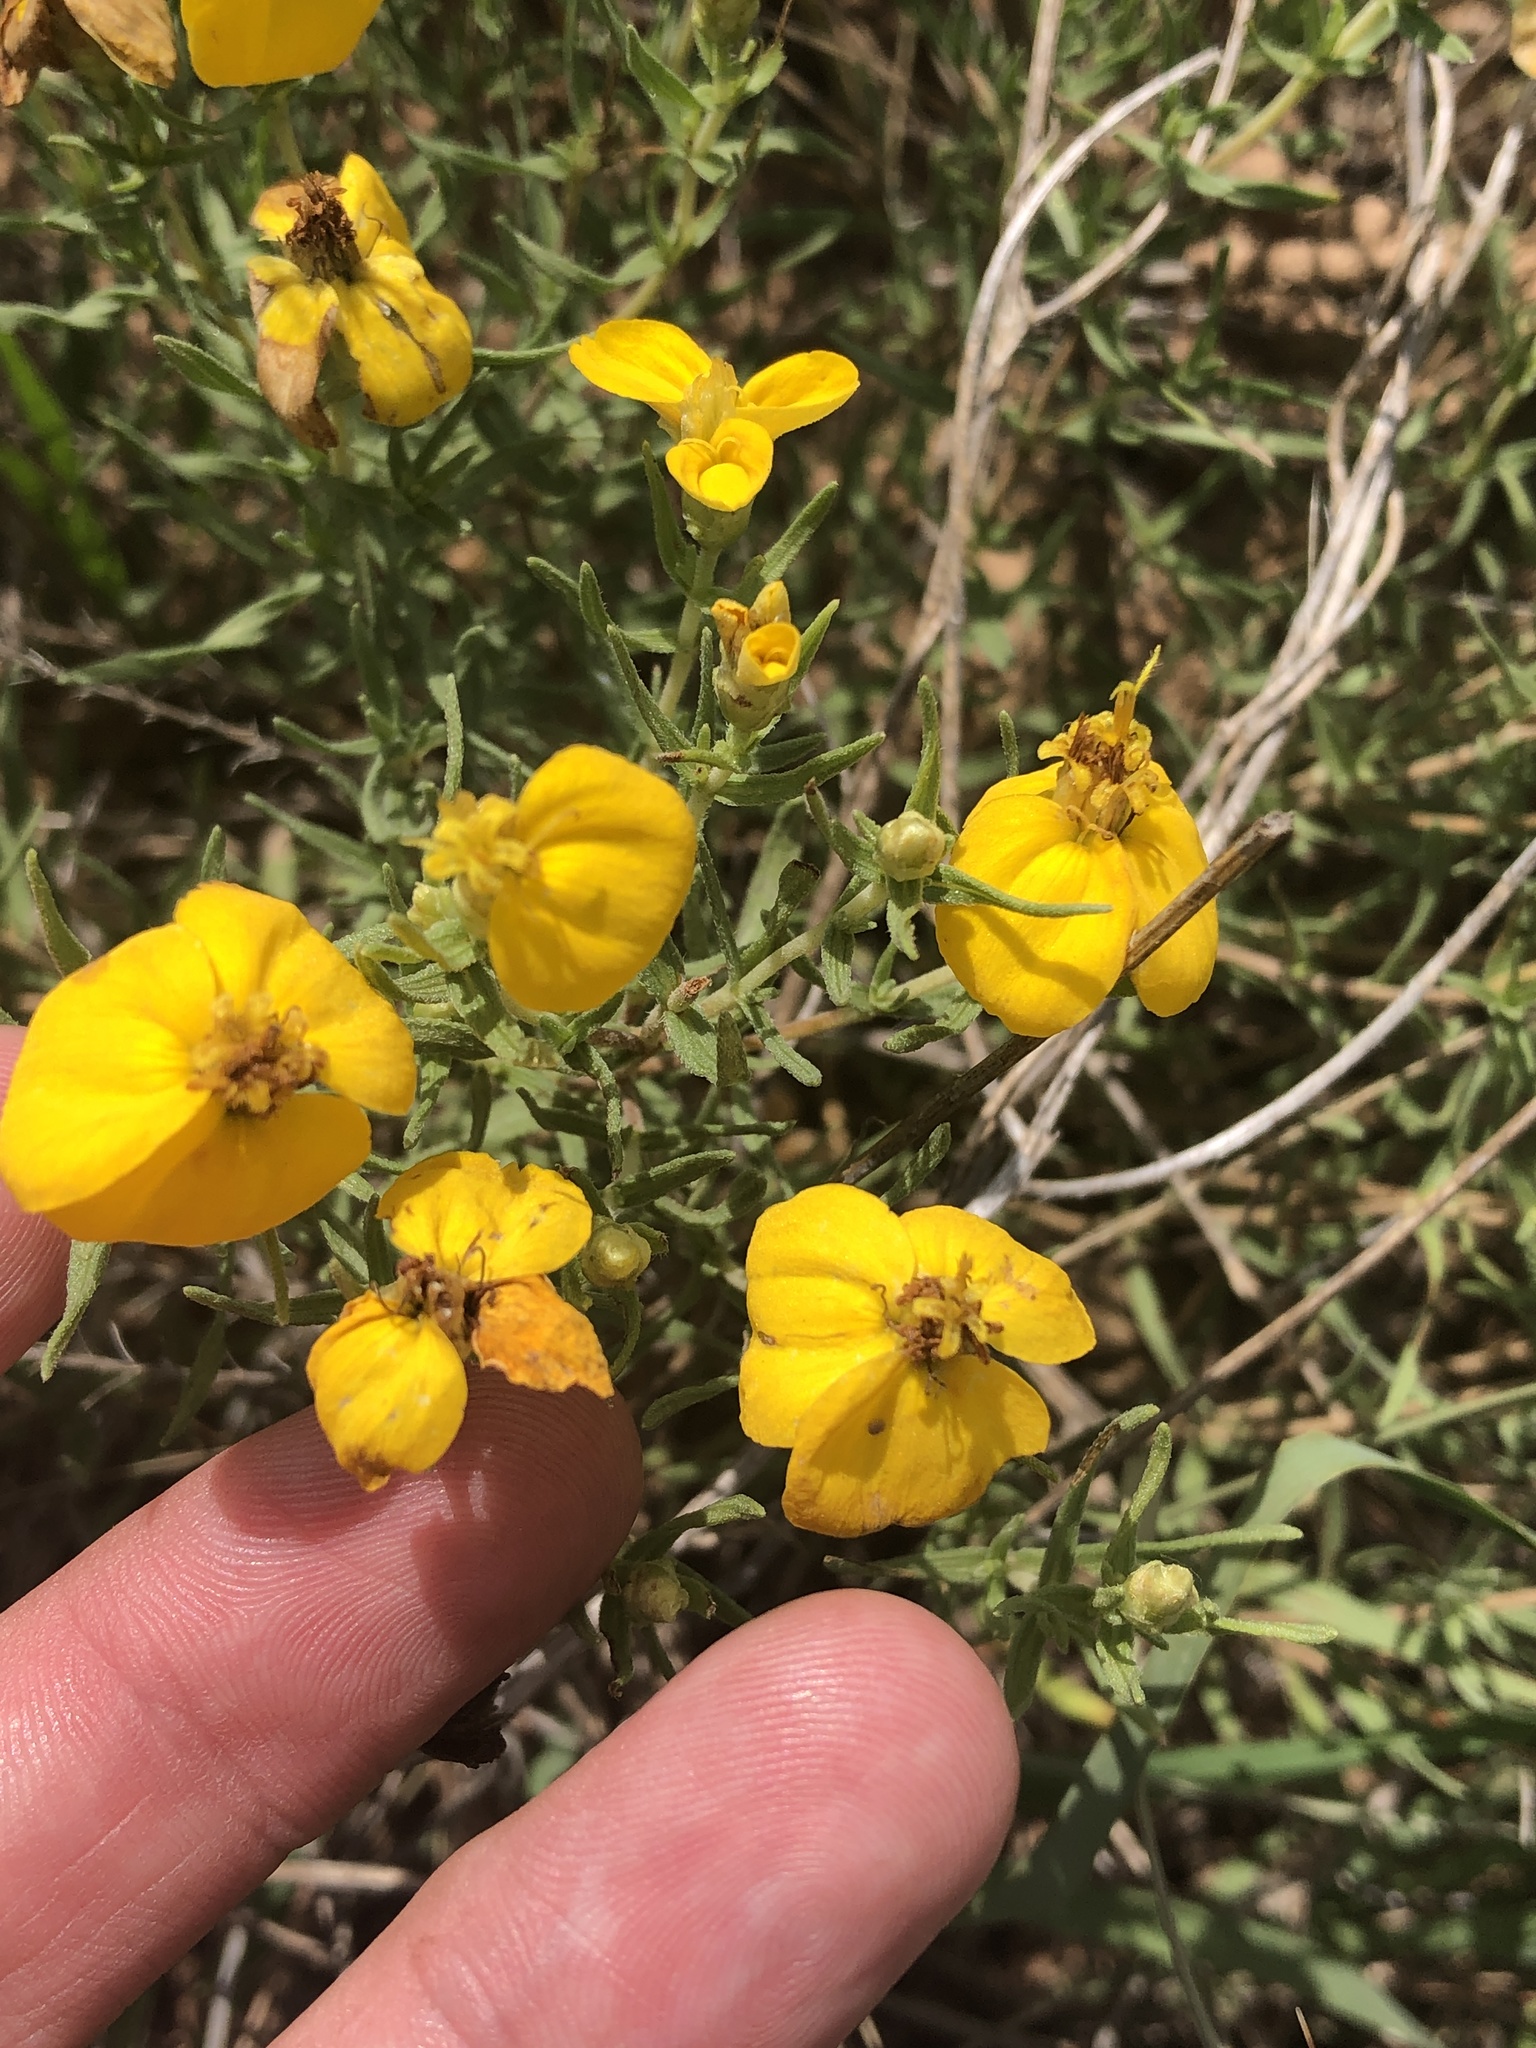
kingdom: Plantae
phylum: Tracheophyta
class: Magnoliopsida
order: Asterales
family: Asteraceae
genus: Zinnia
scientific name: Zinnia grandiflora
